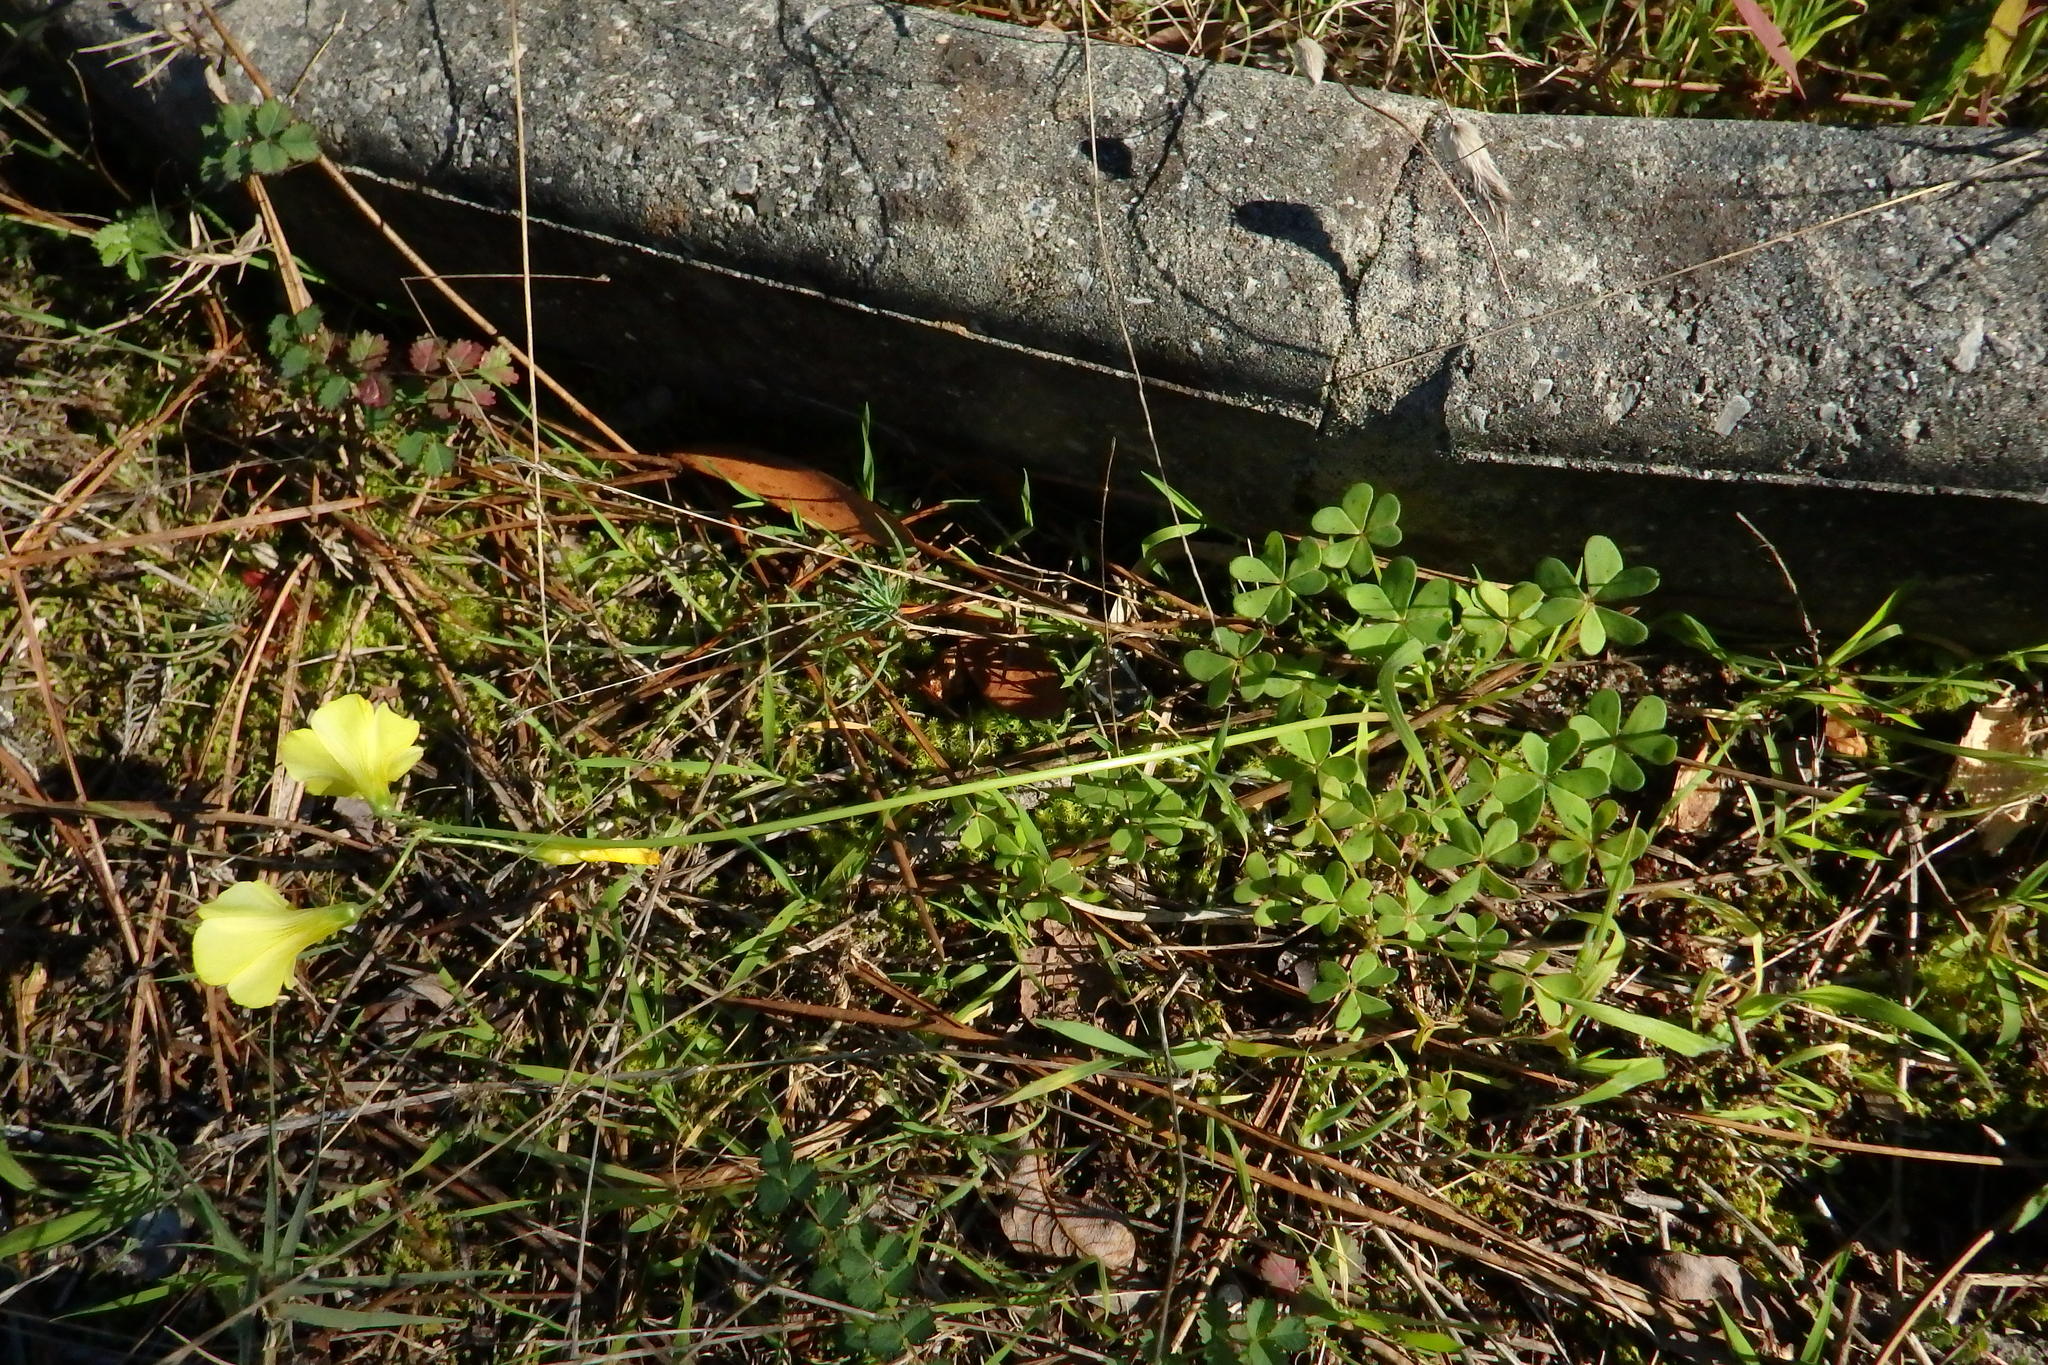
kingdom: Plantae
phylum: Tracheophyta
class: Magnoliopsida
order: Oxalidales
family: Oxalidaceae
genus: Oxalis
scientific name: Oxalis pes-caprae
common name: Bermuda-buttercup
